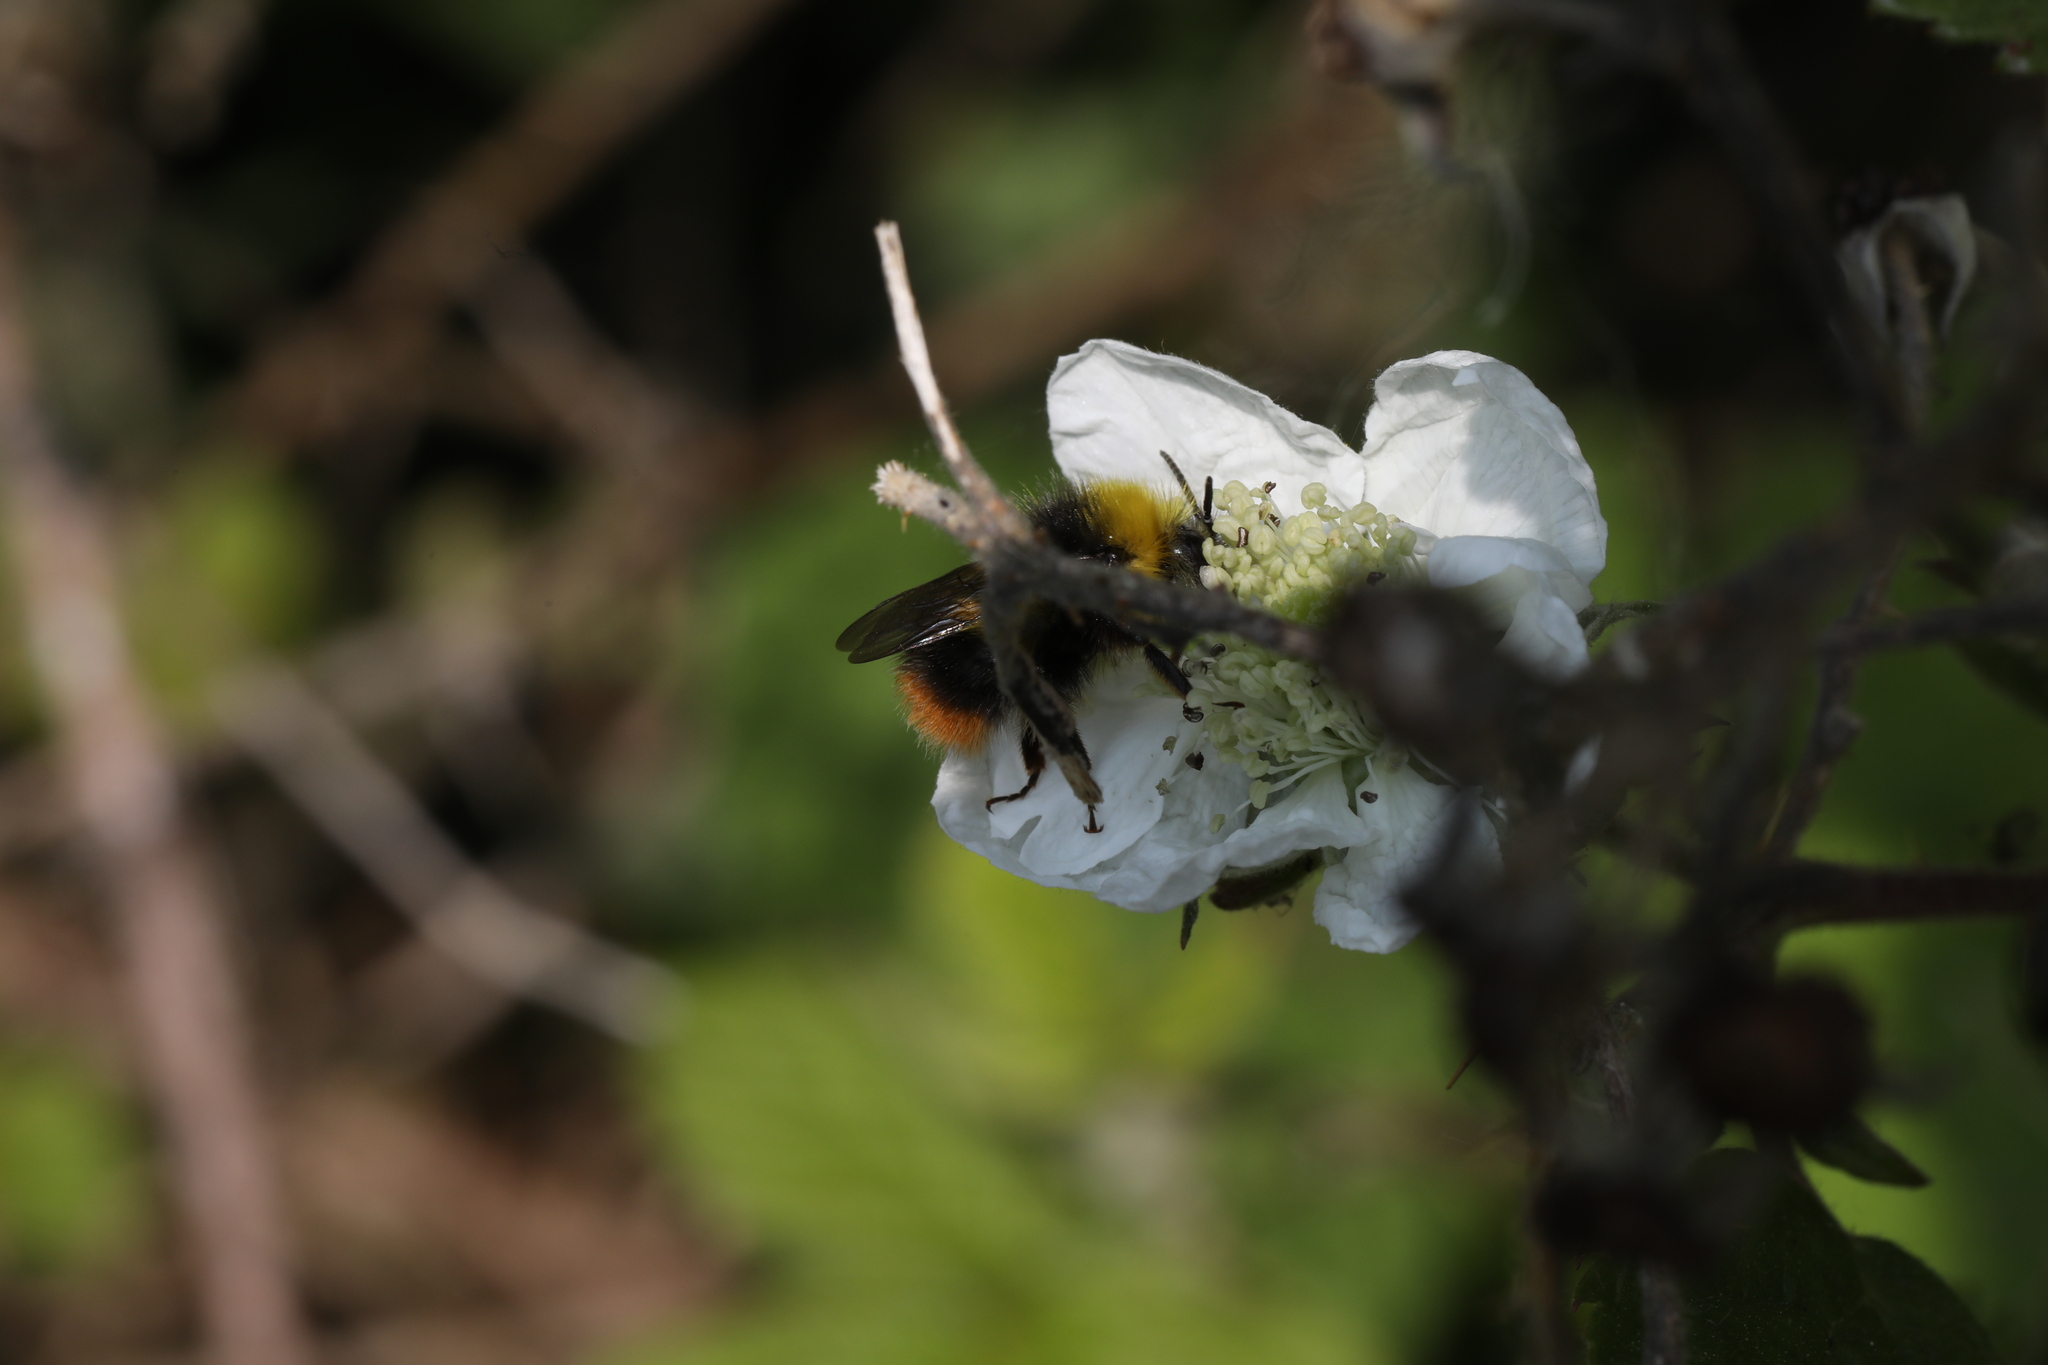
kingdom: Animalia
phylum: Arthropoda
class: Insecta
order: Hymenoptera
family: Apidae
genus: Bombus
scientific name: Bombus pratorum
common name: Early humble-bee
